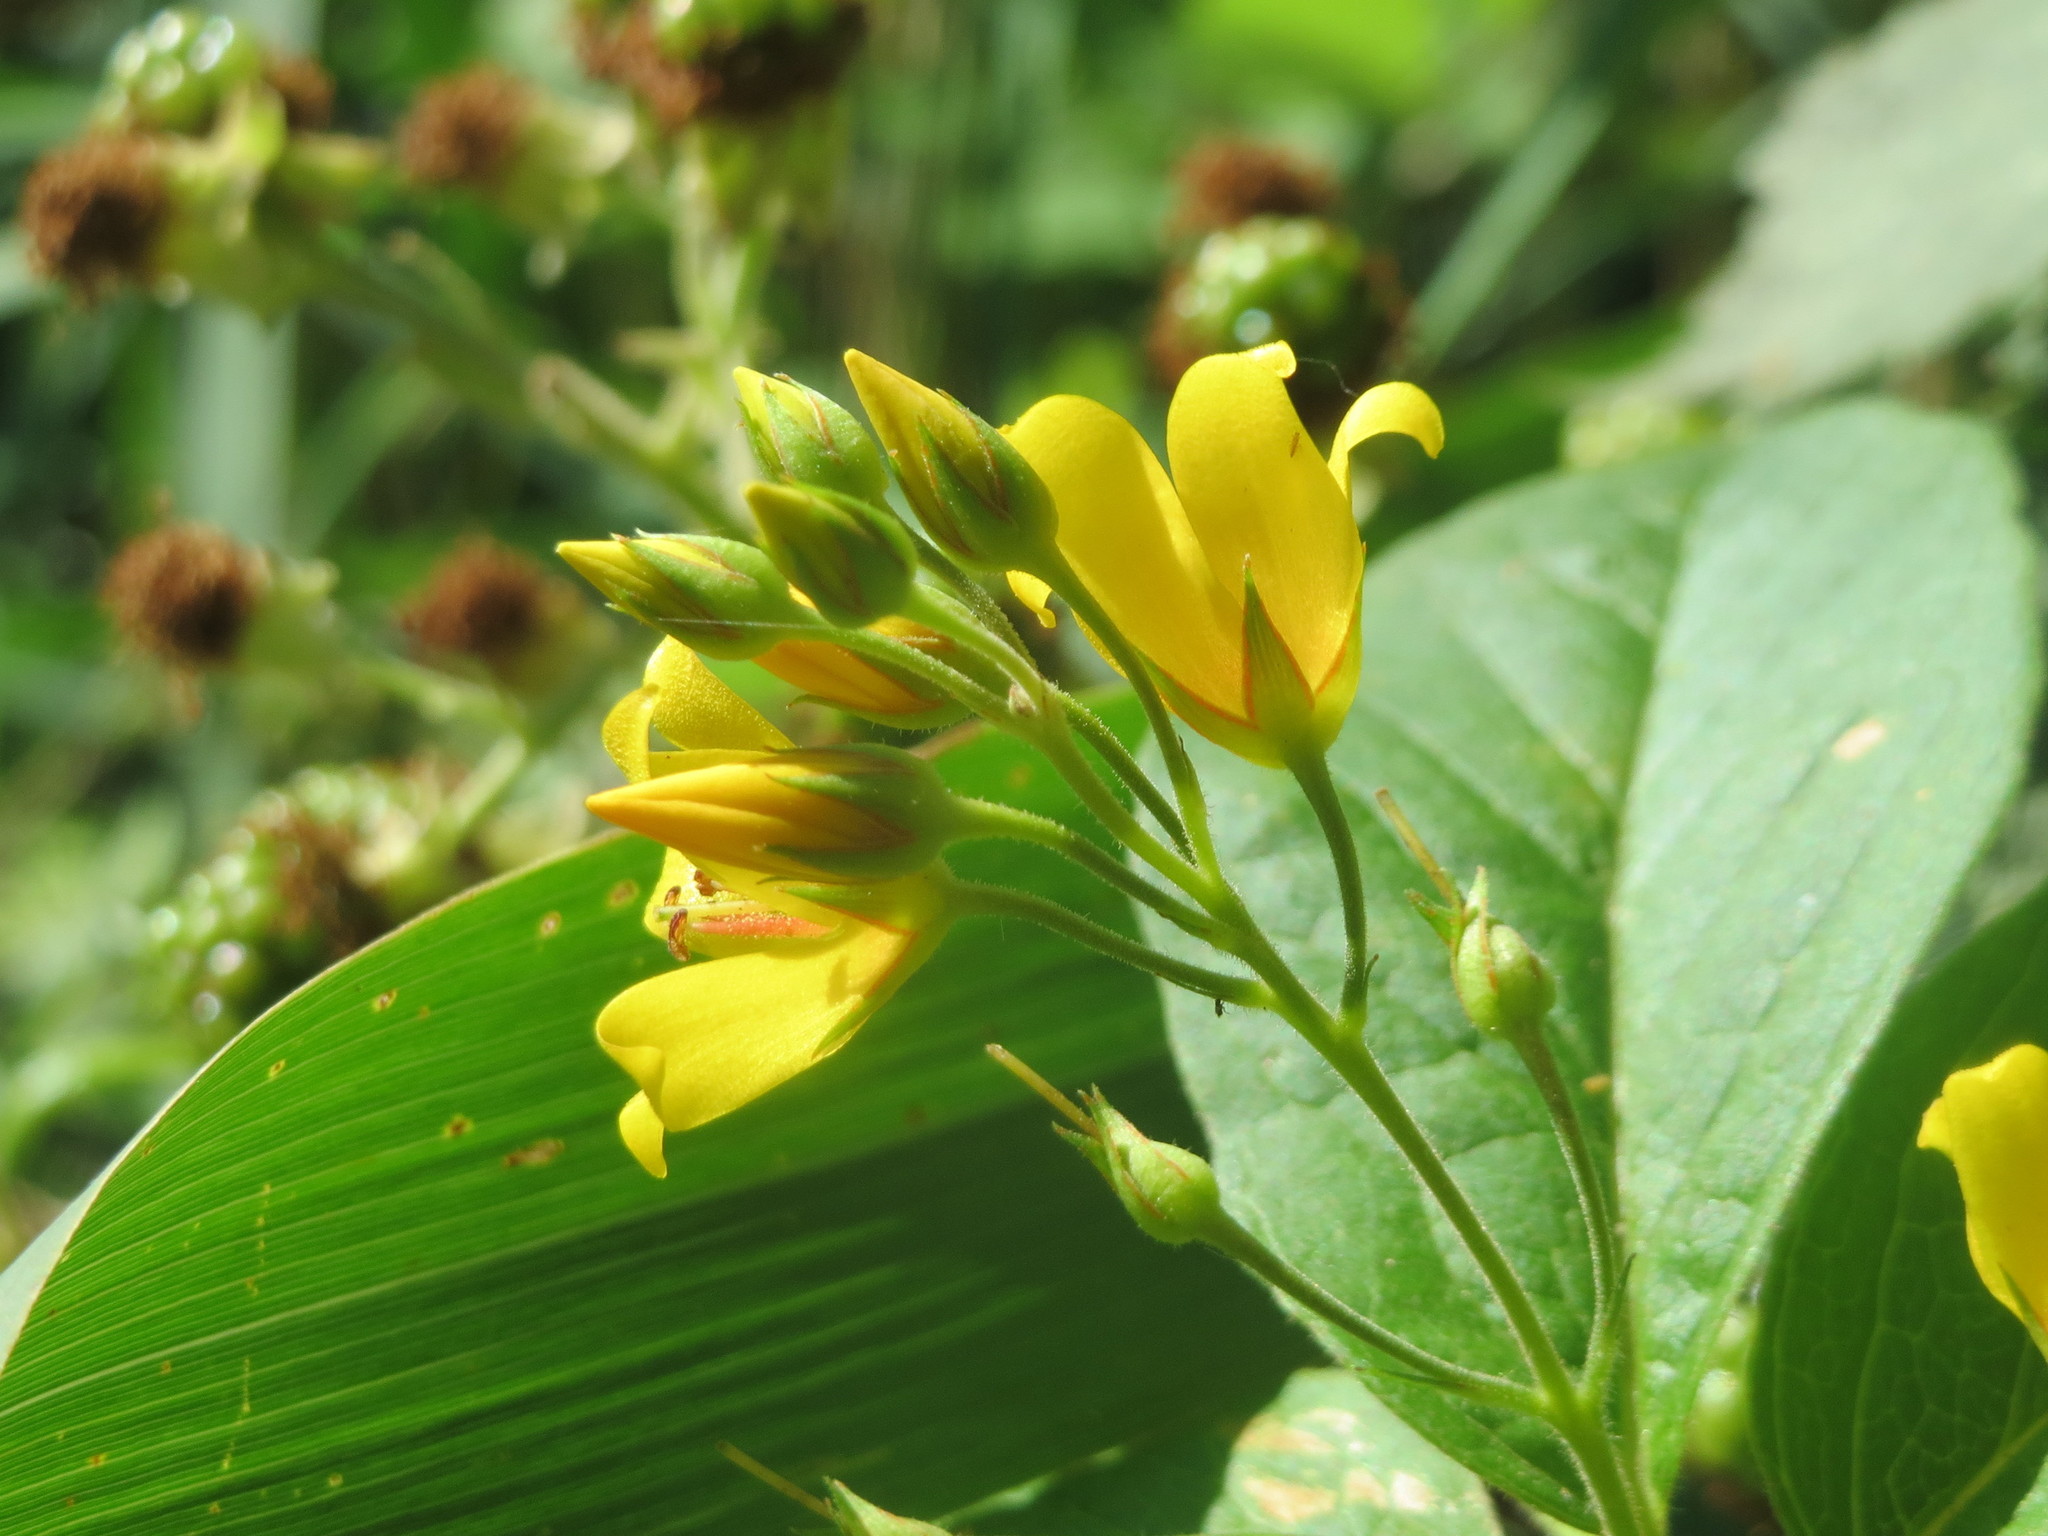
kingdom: Plantae
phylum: Tracheophyta
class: Magnoliopsida
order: Ericales
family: Primulaceae
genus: Lysimachia
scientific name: Lysimachia vulgaris
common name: Yellow loosestrife
